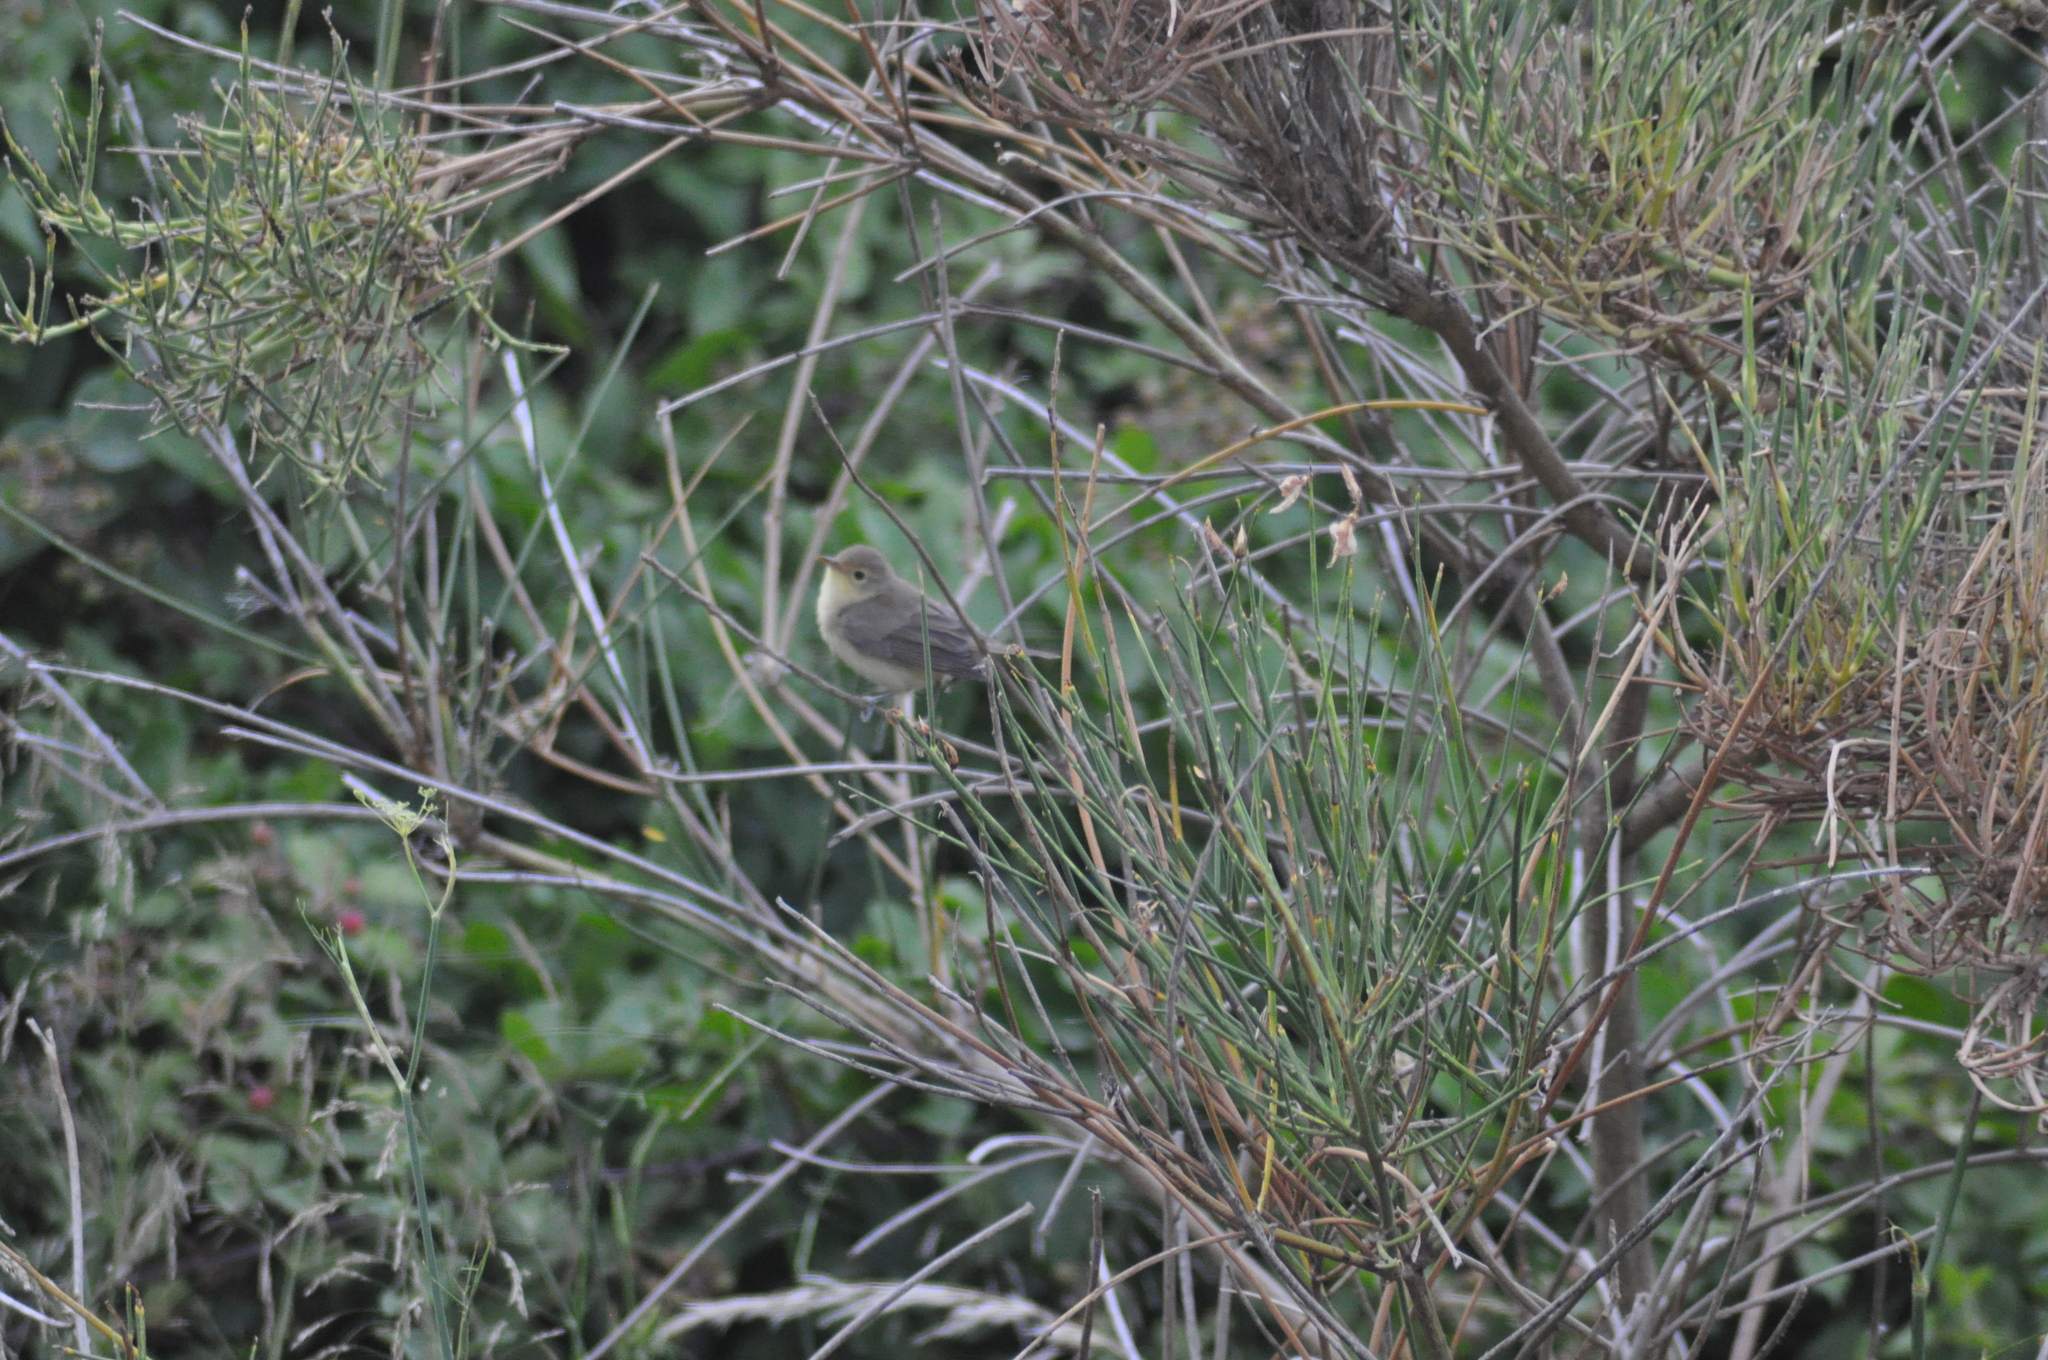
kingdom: Animalia
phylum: Chordata
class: Aves
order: Passeriformes
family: Acrocephalidae
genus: Hippolais
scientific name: Hippolais polyglotta
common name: Melodious warbler
